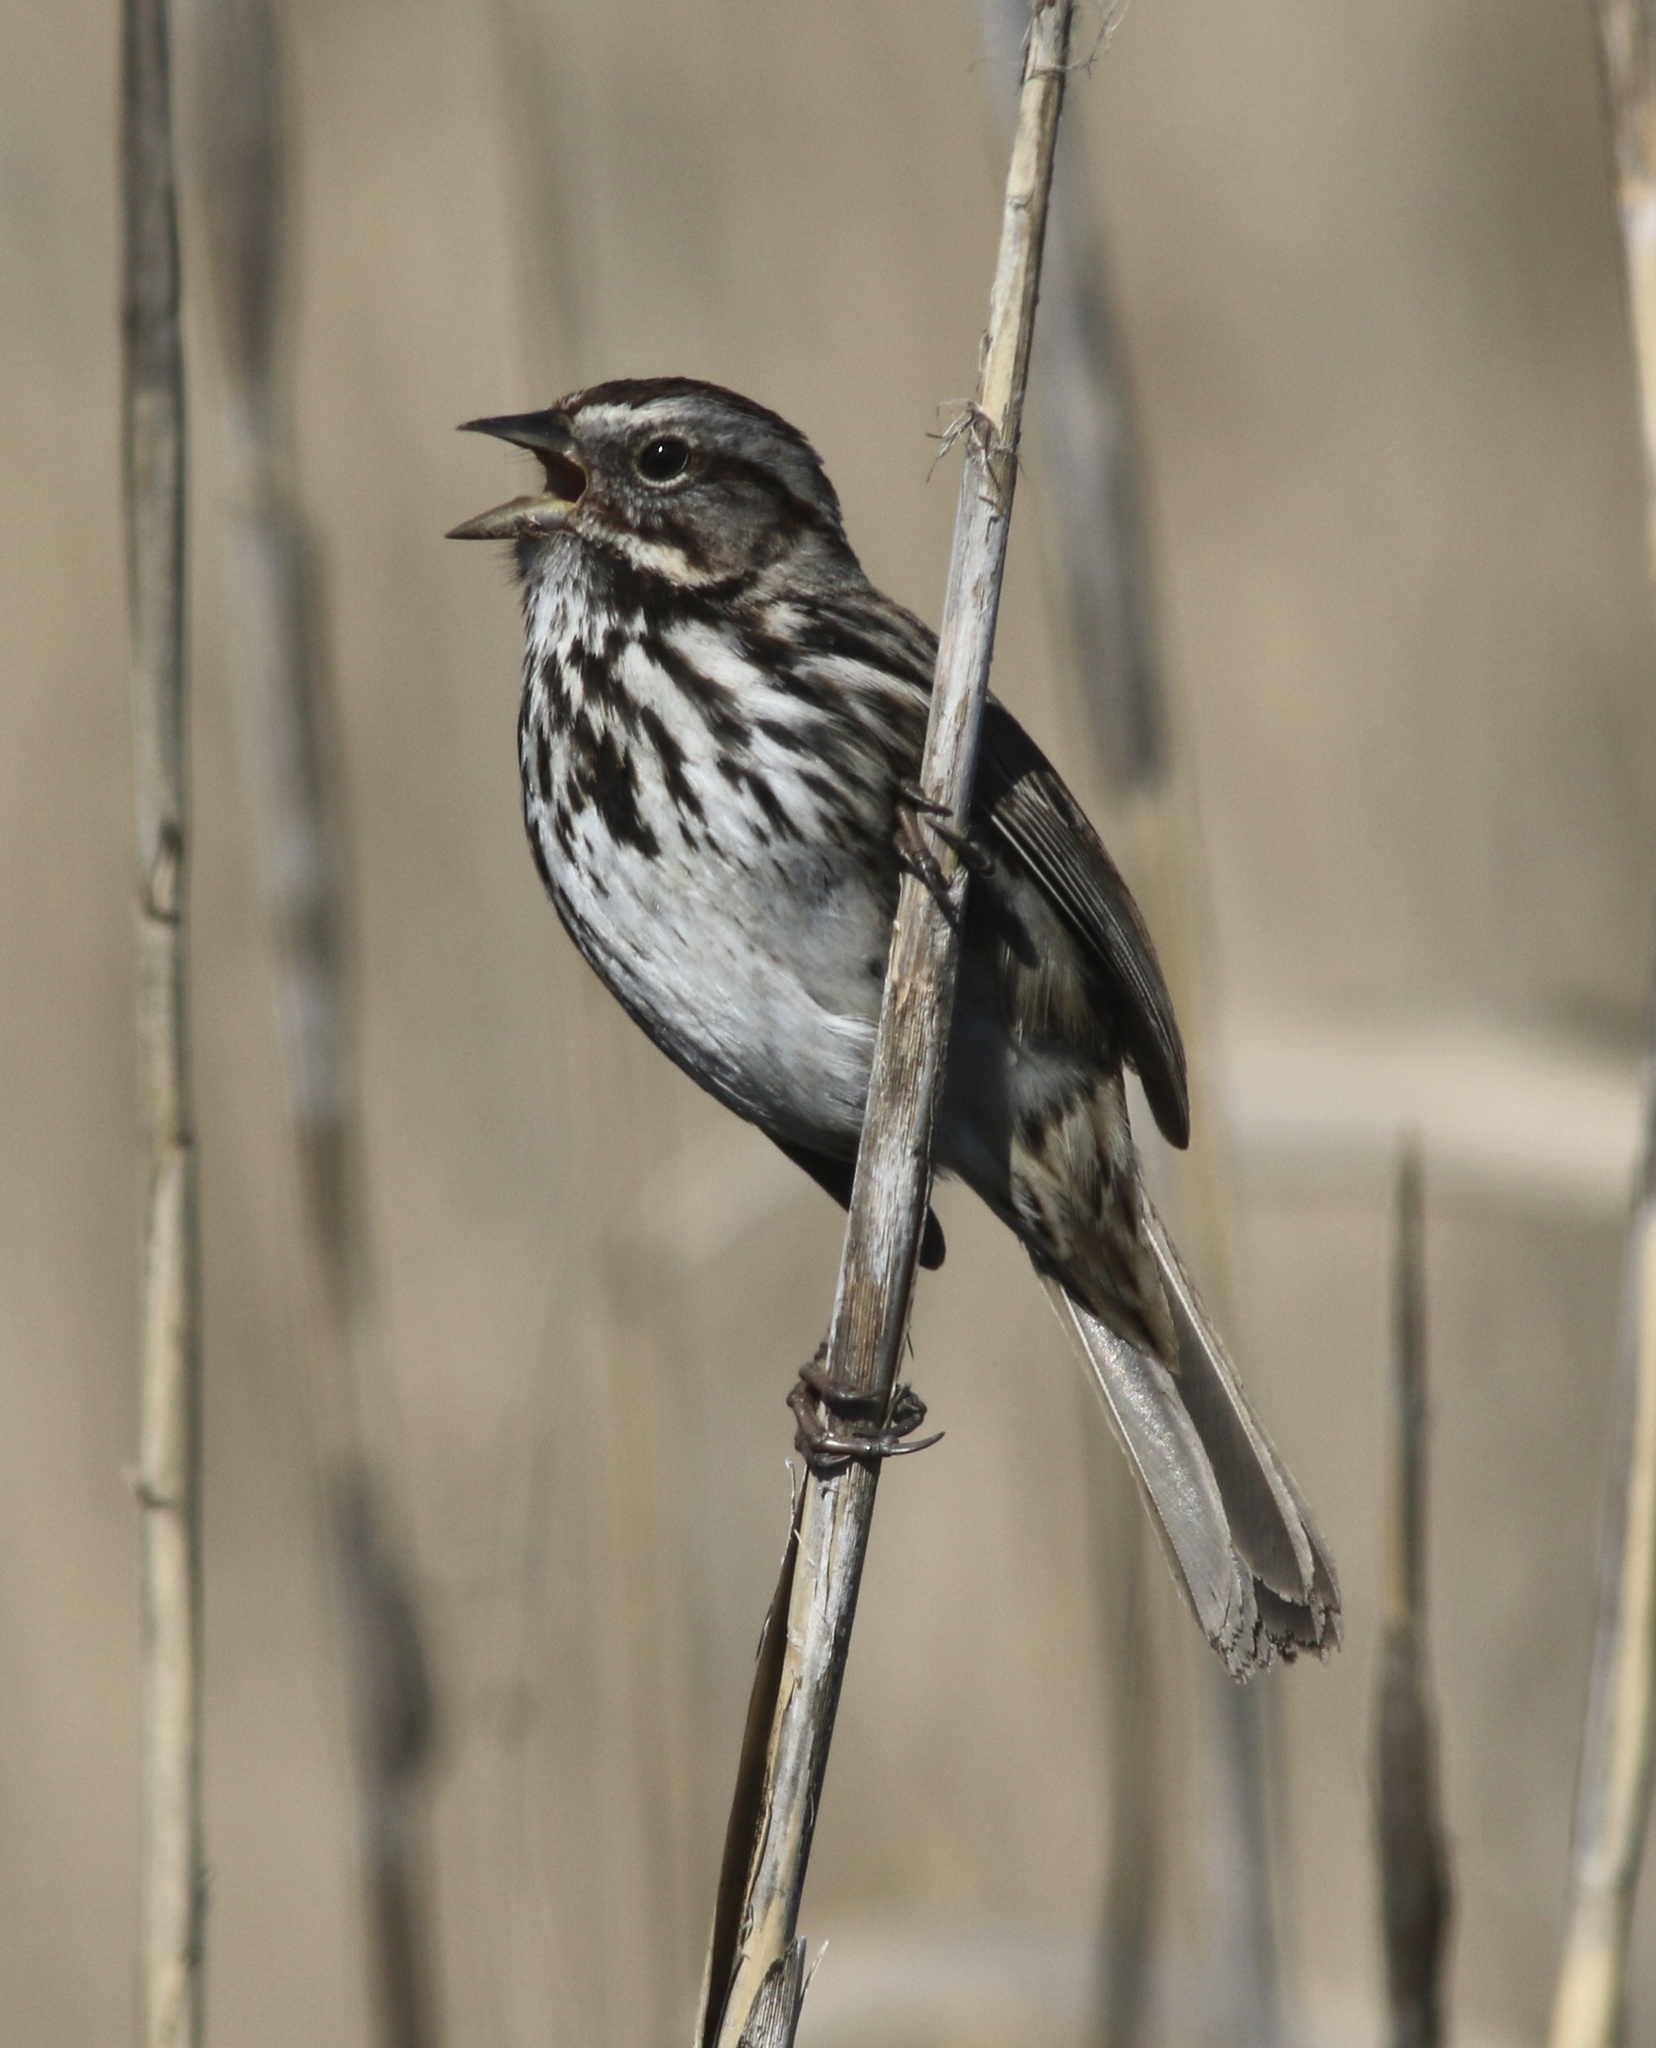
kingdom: Animalia
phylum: Chordata
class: Aves
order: Passeriformes
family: Passerellidae
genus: Melospiza
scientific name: Melospiza melodia
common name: Song sparrow
